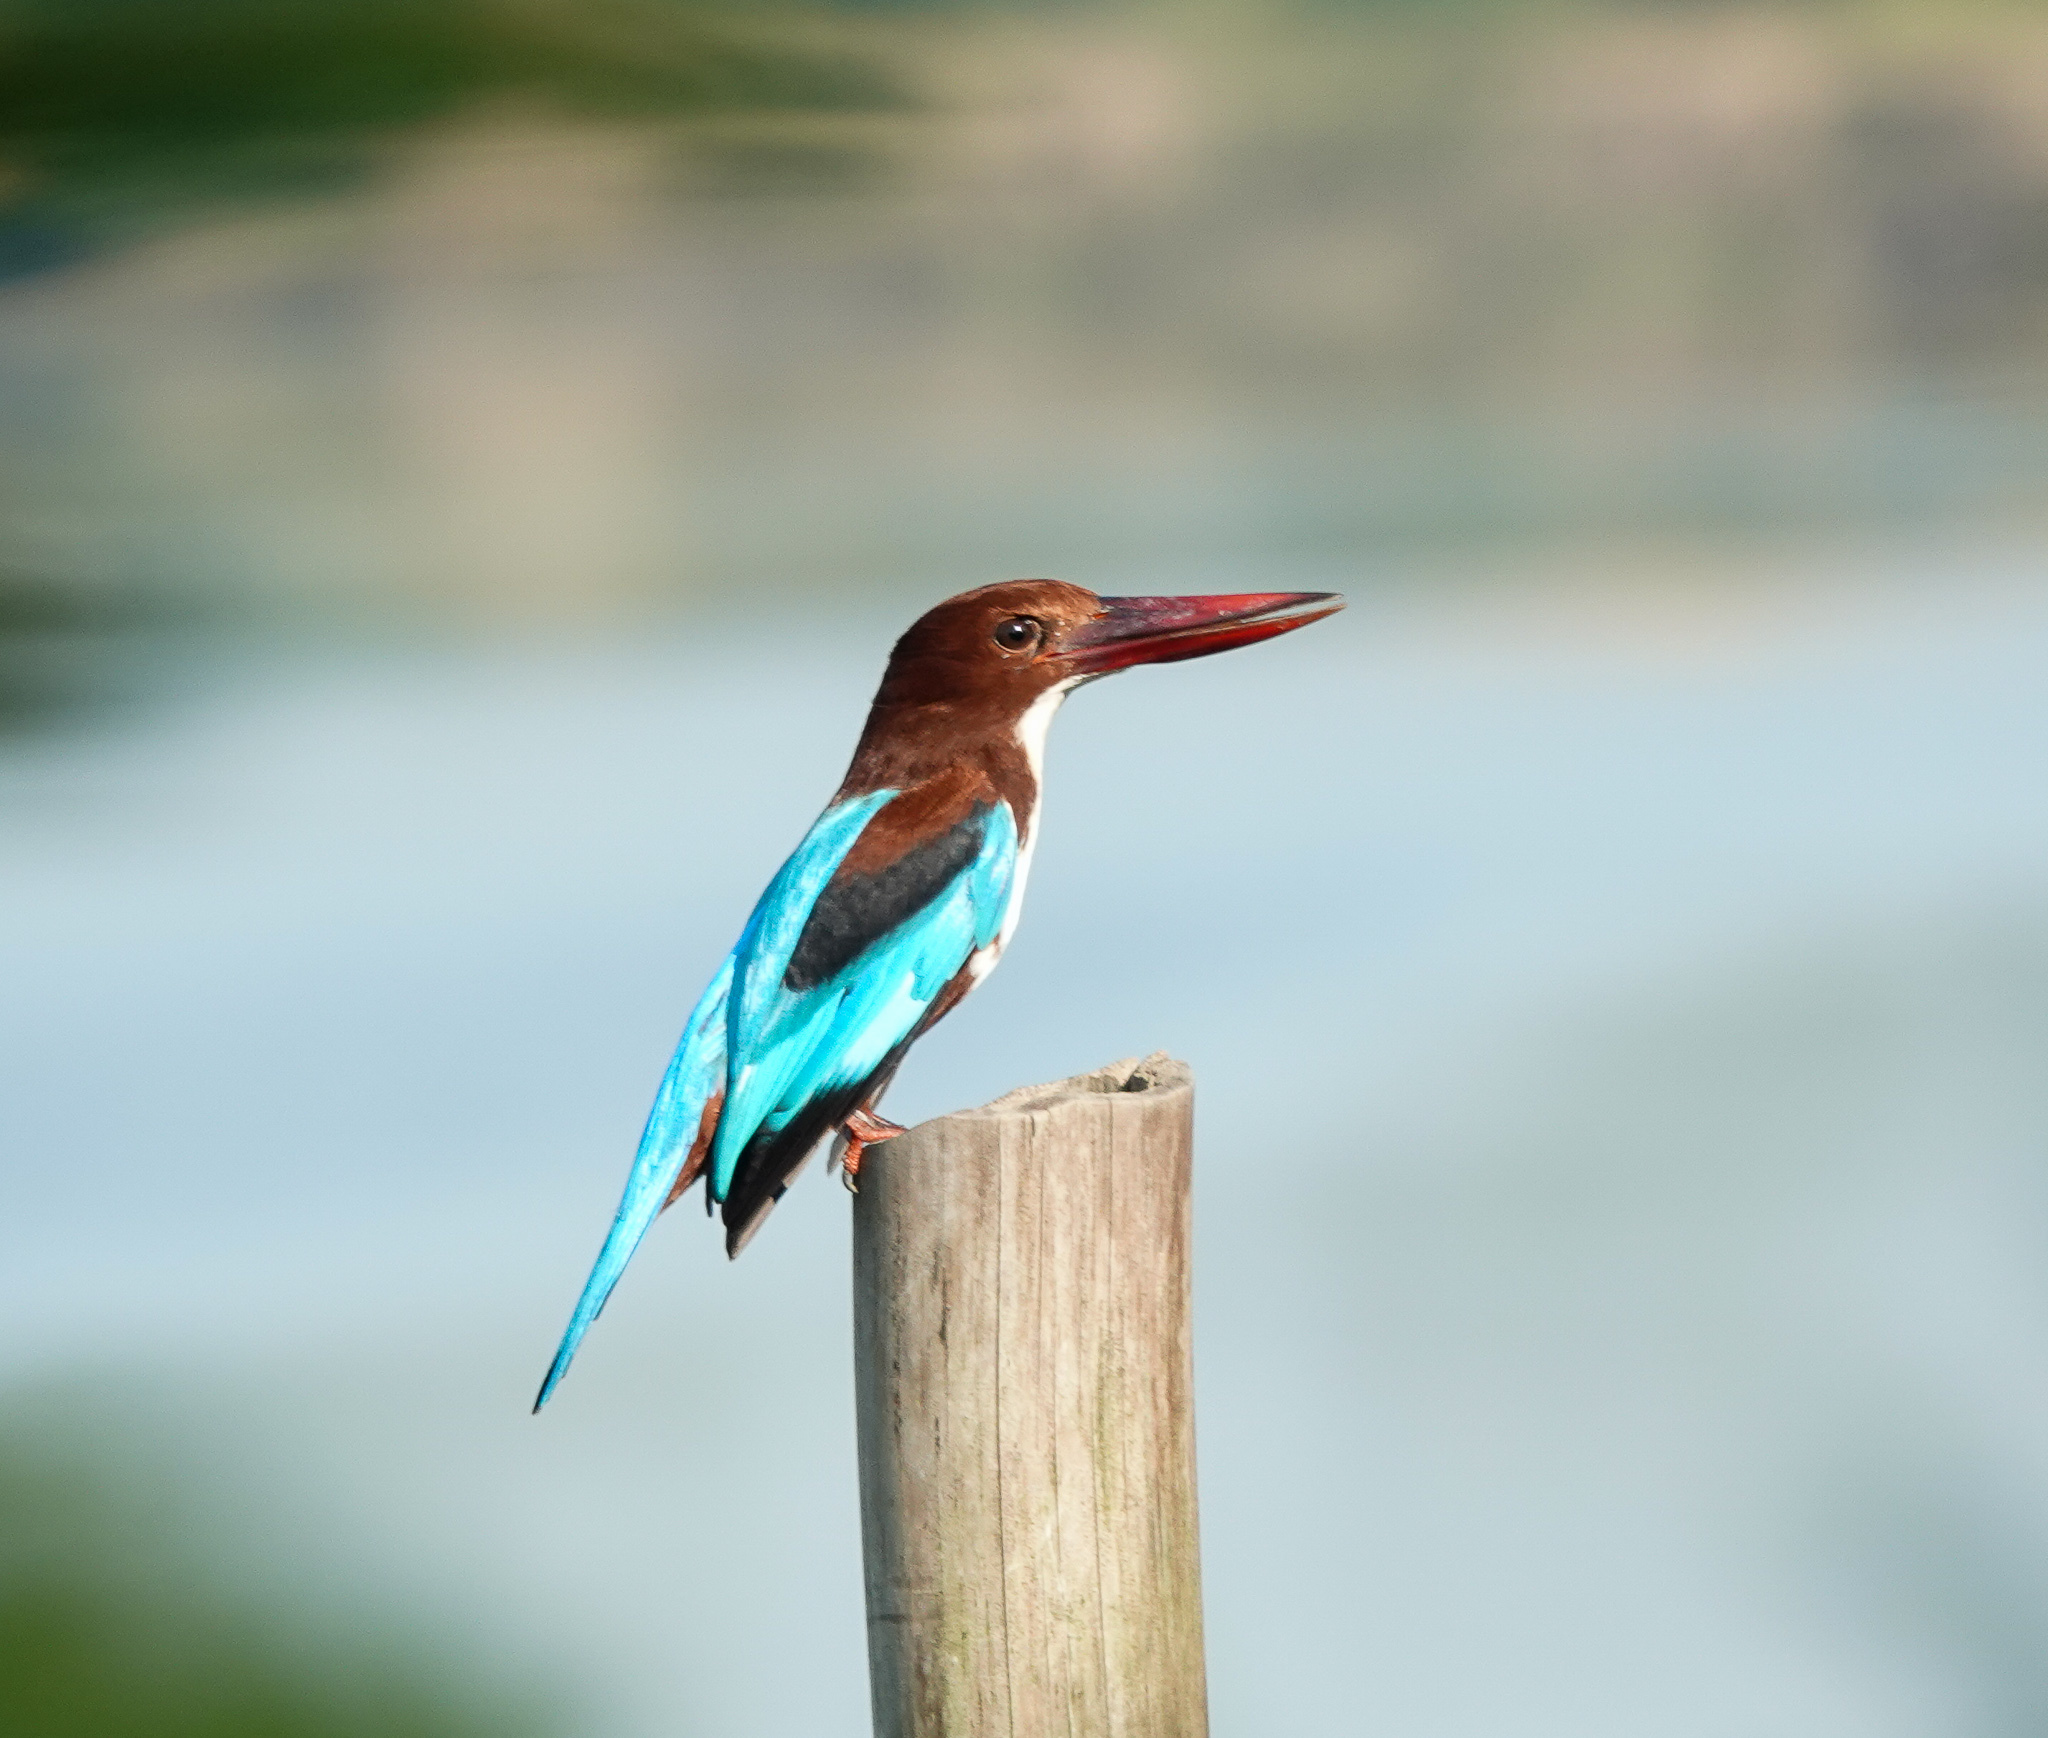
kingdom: Animalia
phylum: Chordata
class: Aves
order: Coraciiformes
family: Alcedinidae
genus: Halcyon
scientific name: Halcyon smyrnensis
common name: White-throated kingfisher
